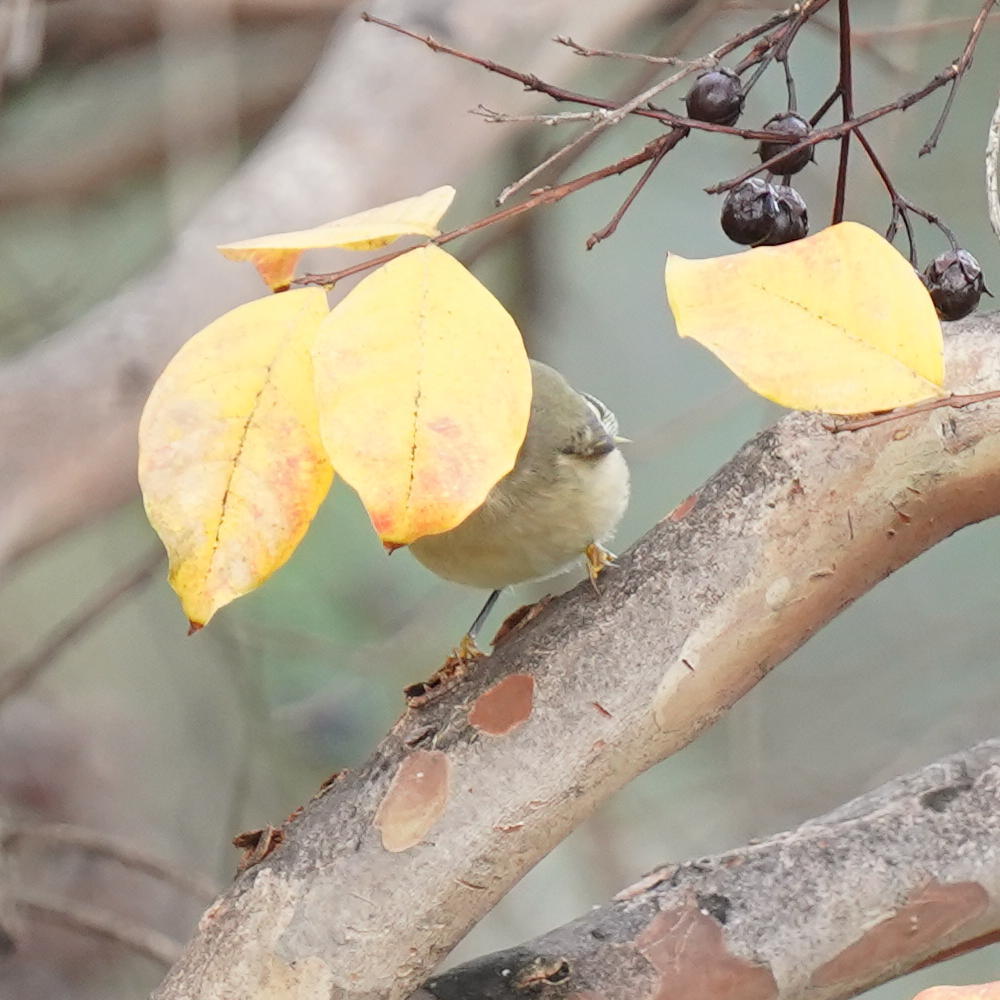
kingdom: Animalia
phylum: Chordata
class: Aves
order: Passeriformes
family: Regulidae
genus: Regulus
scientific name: Regulus calendula
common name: Ruby-crowned kinglet
